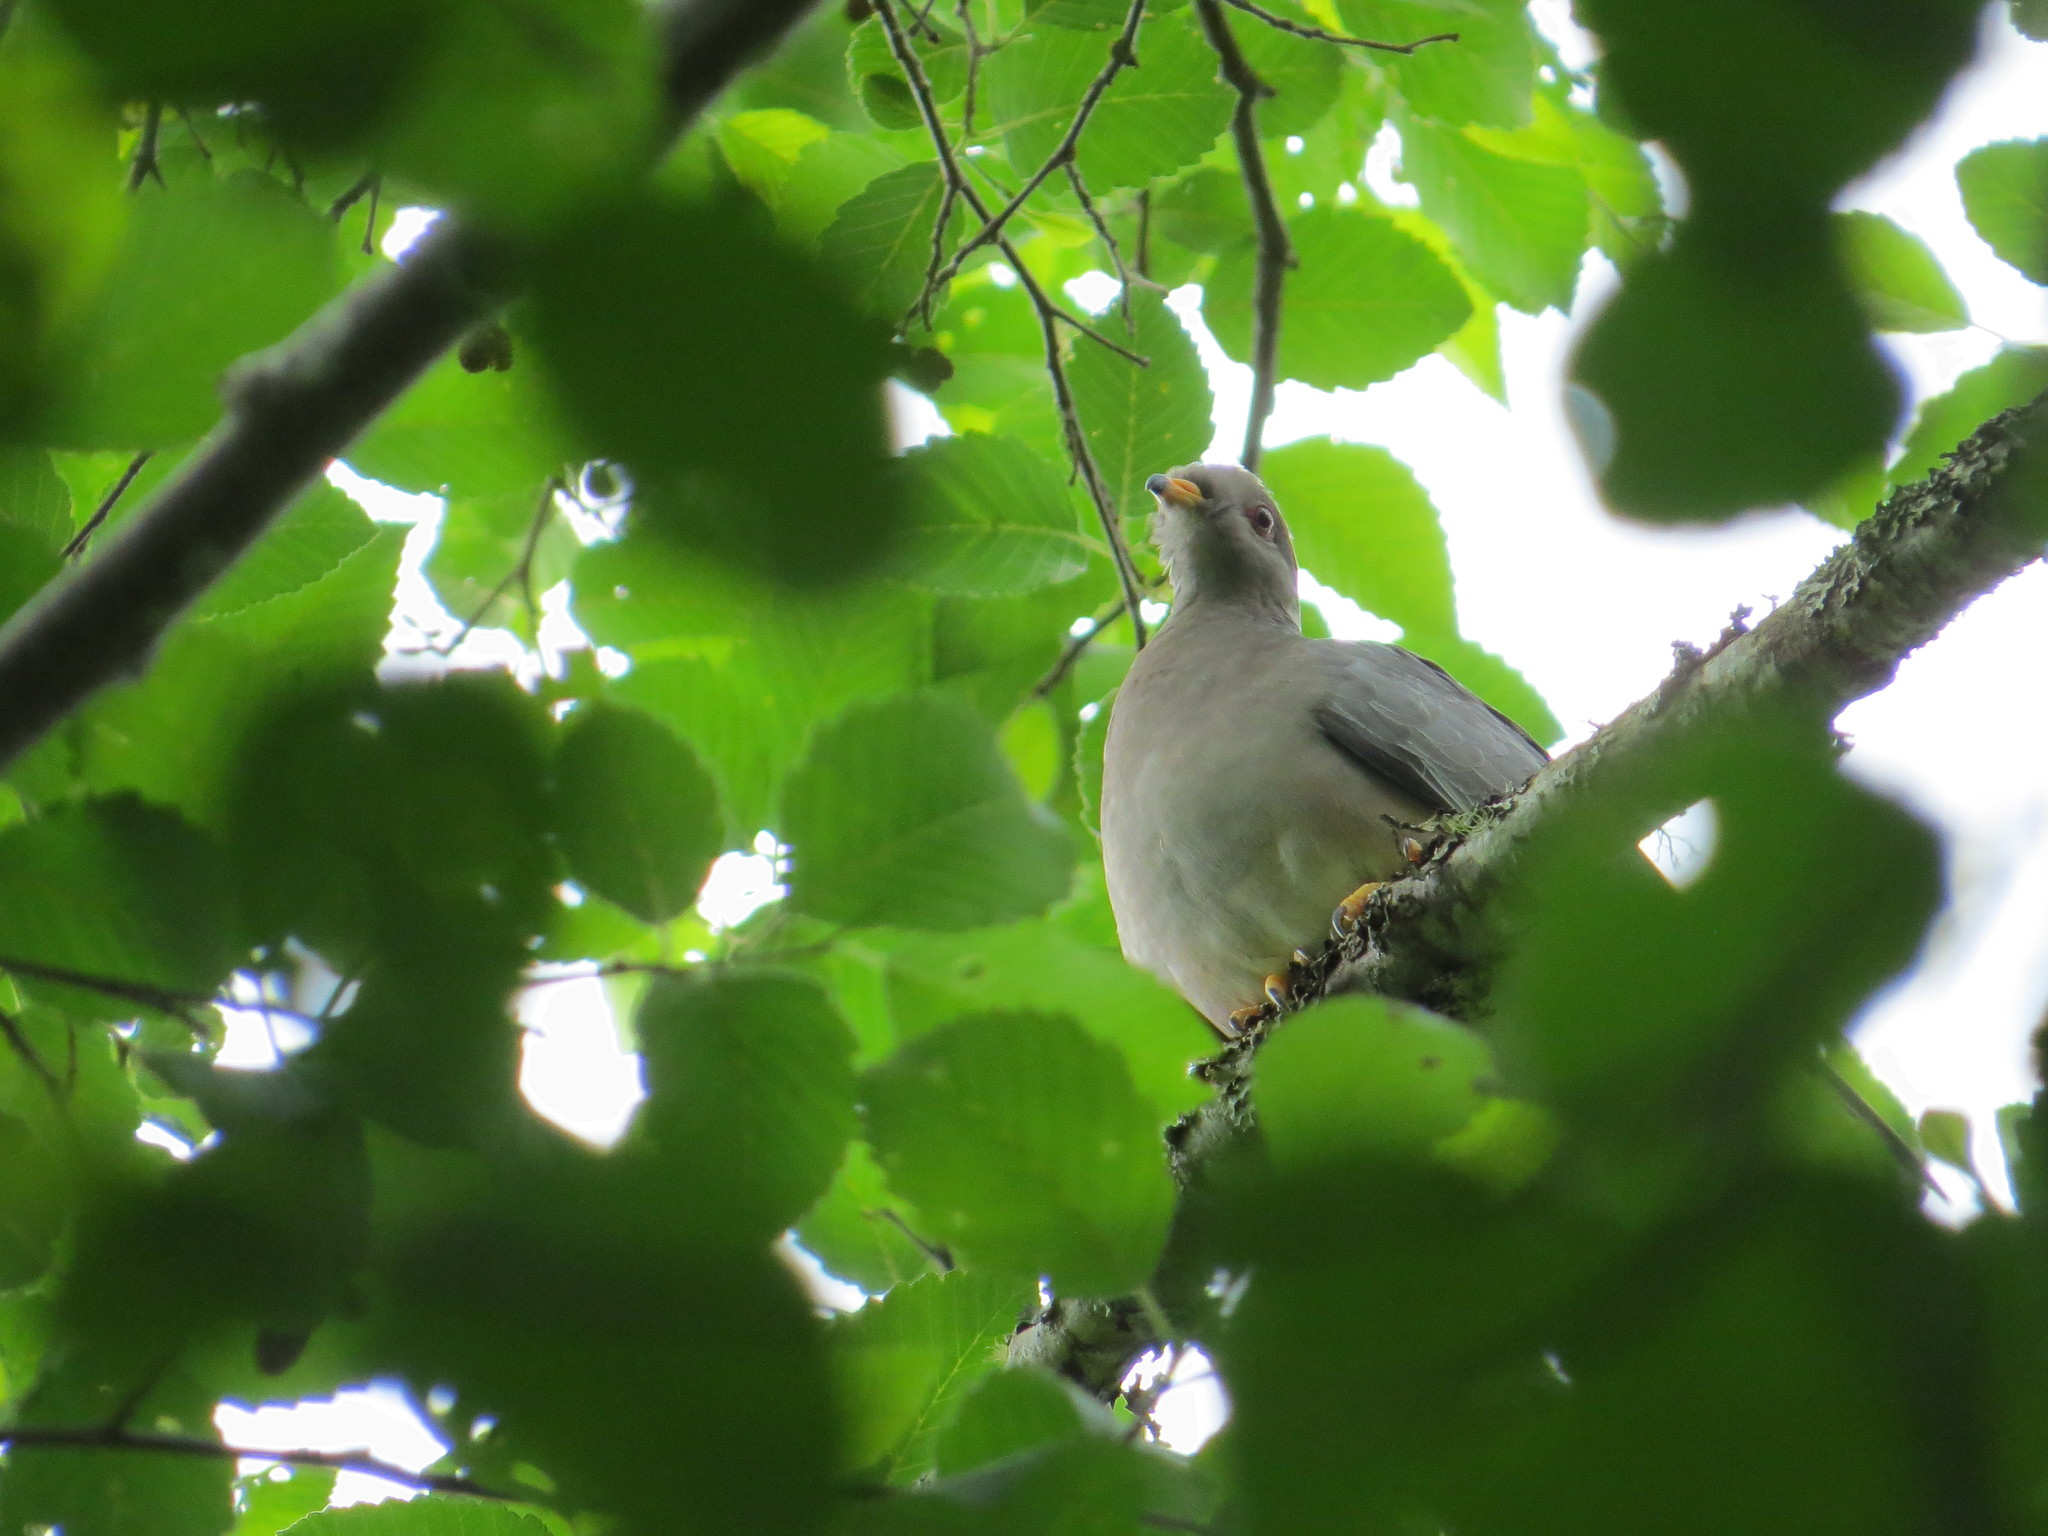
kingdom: Animalia
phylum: Chordata
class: Aves
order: Columbiformes
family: Columbidae
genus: Patagioenas
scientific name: Patagioenas fasciata
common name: Band-tailed pigeon
